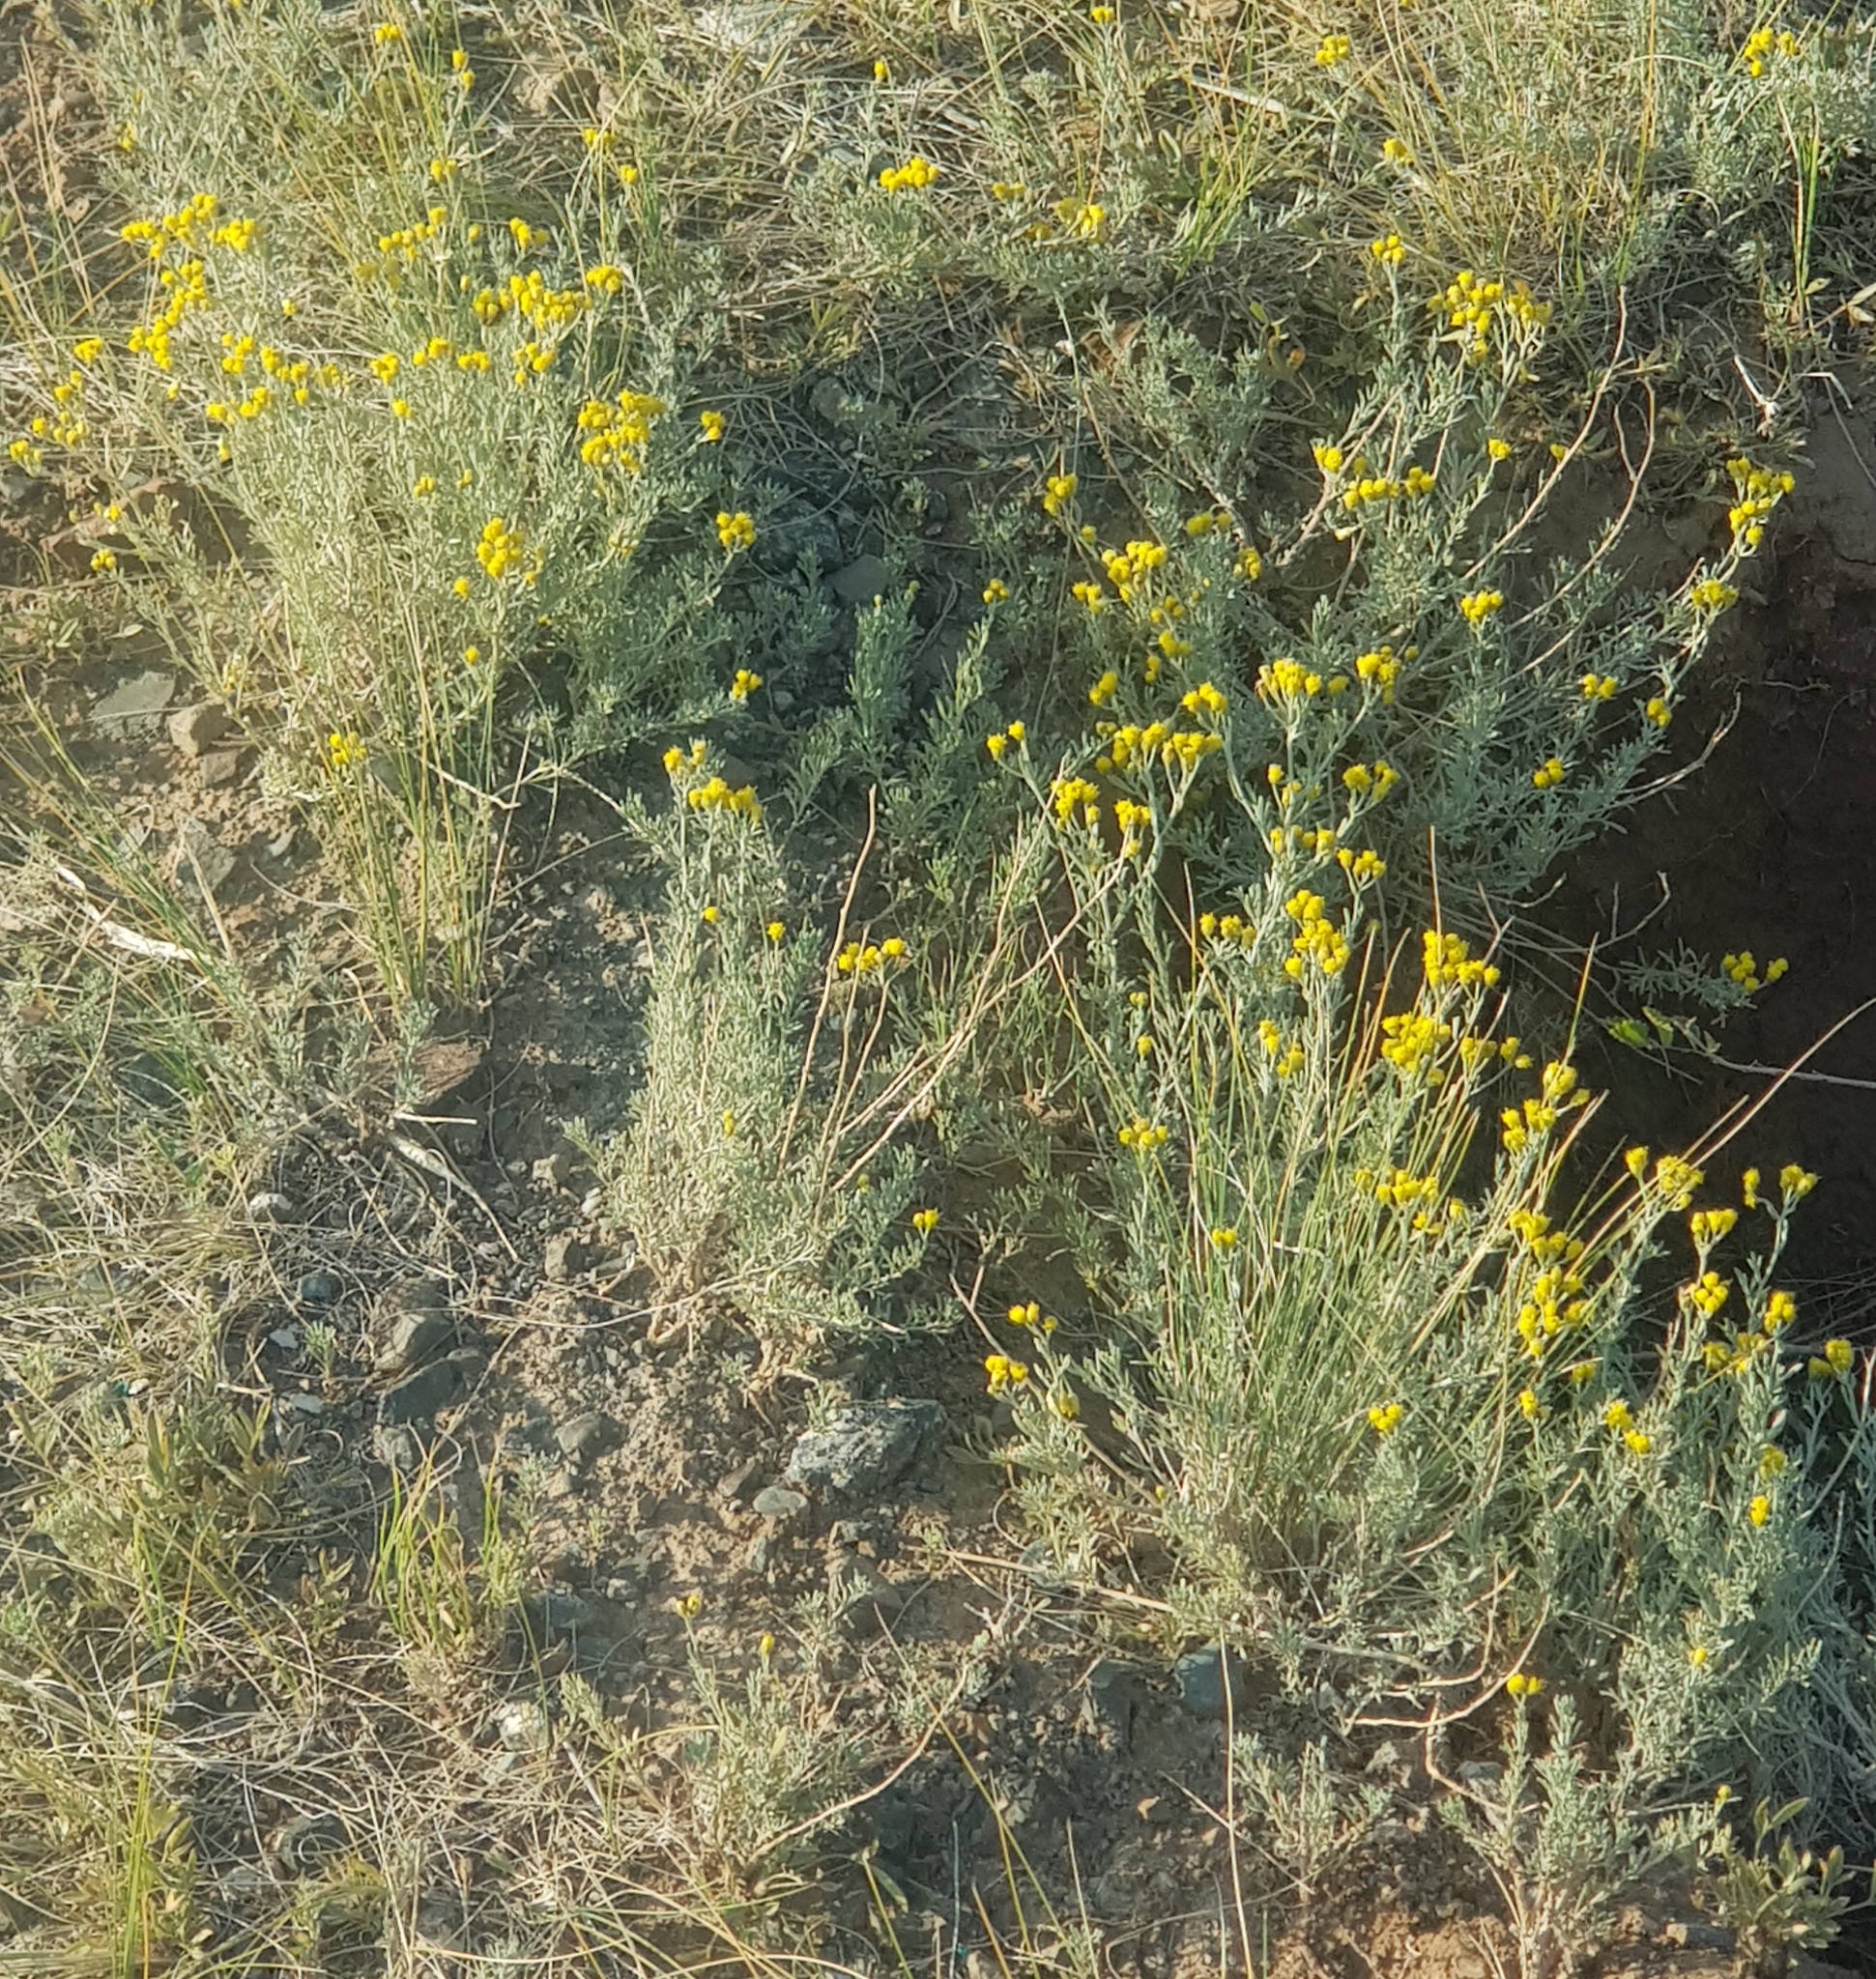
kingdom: Plantae
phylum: Tracheophyta
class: Magnoliopsida
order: Asterales
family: Asteraceae
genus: Ajania
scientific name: Ajania achilleoides
